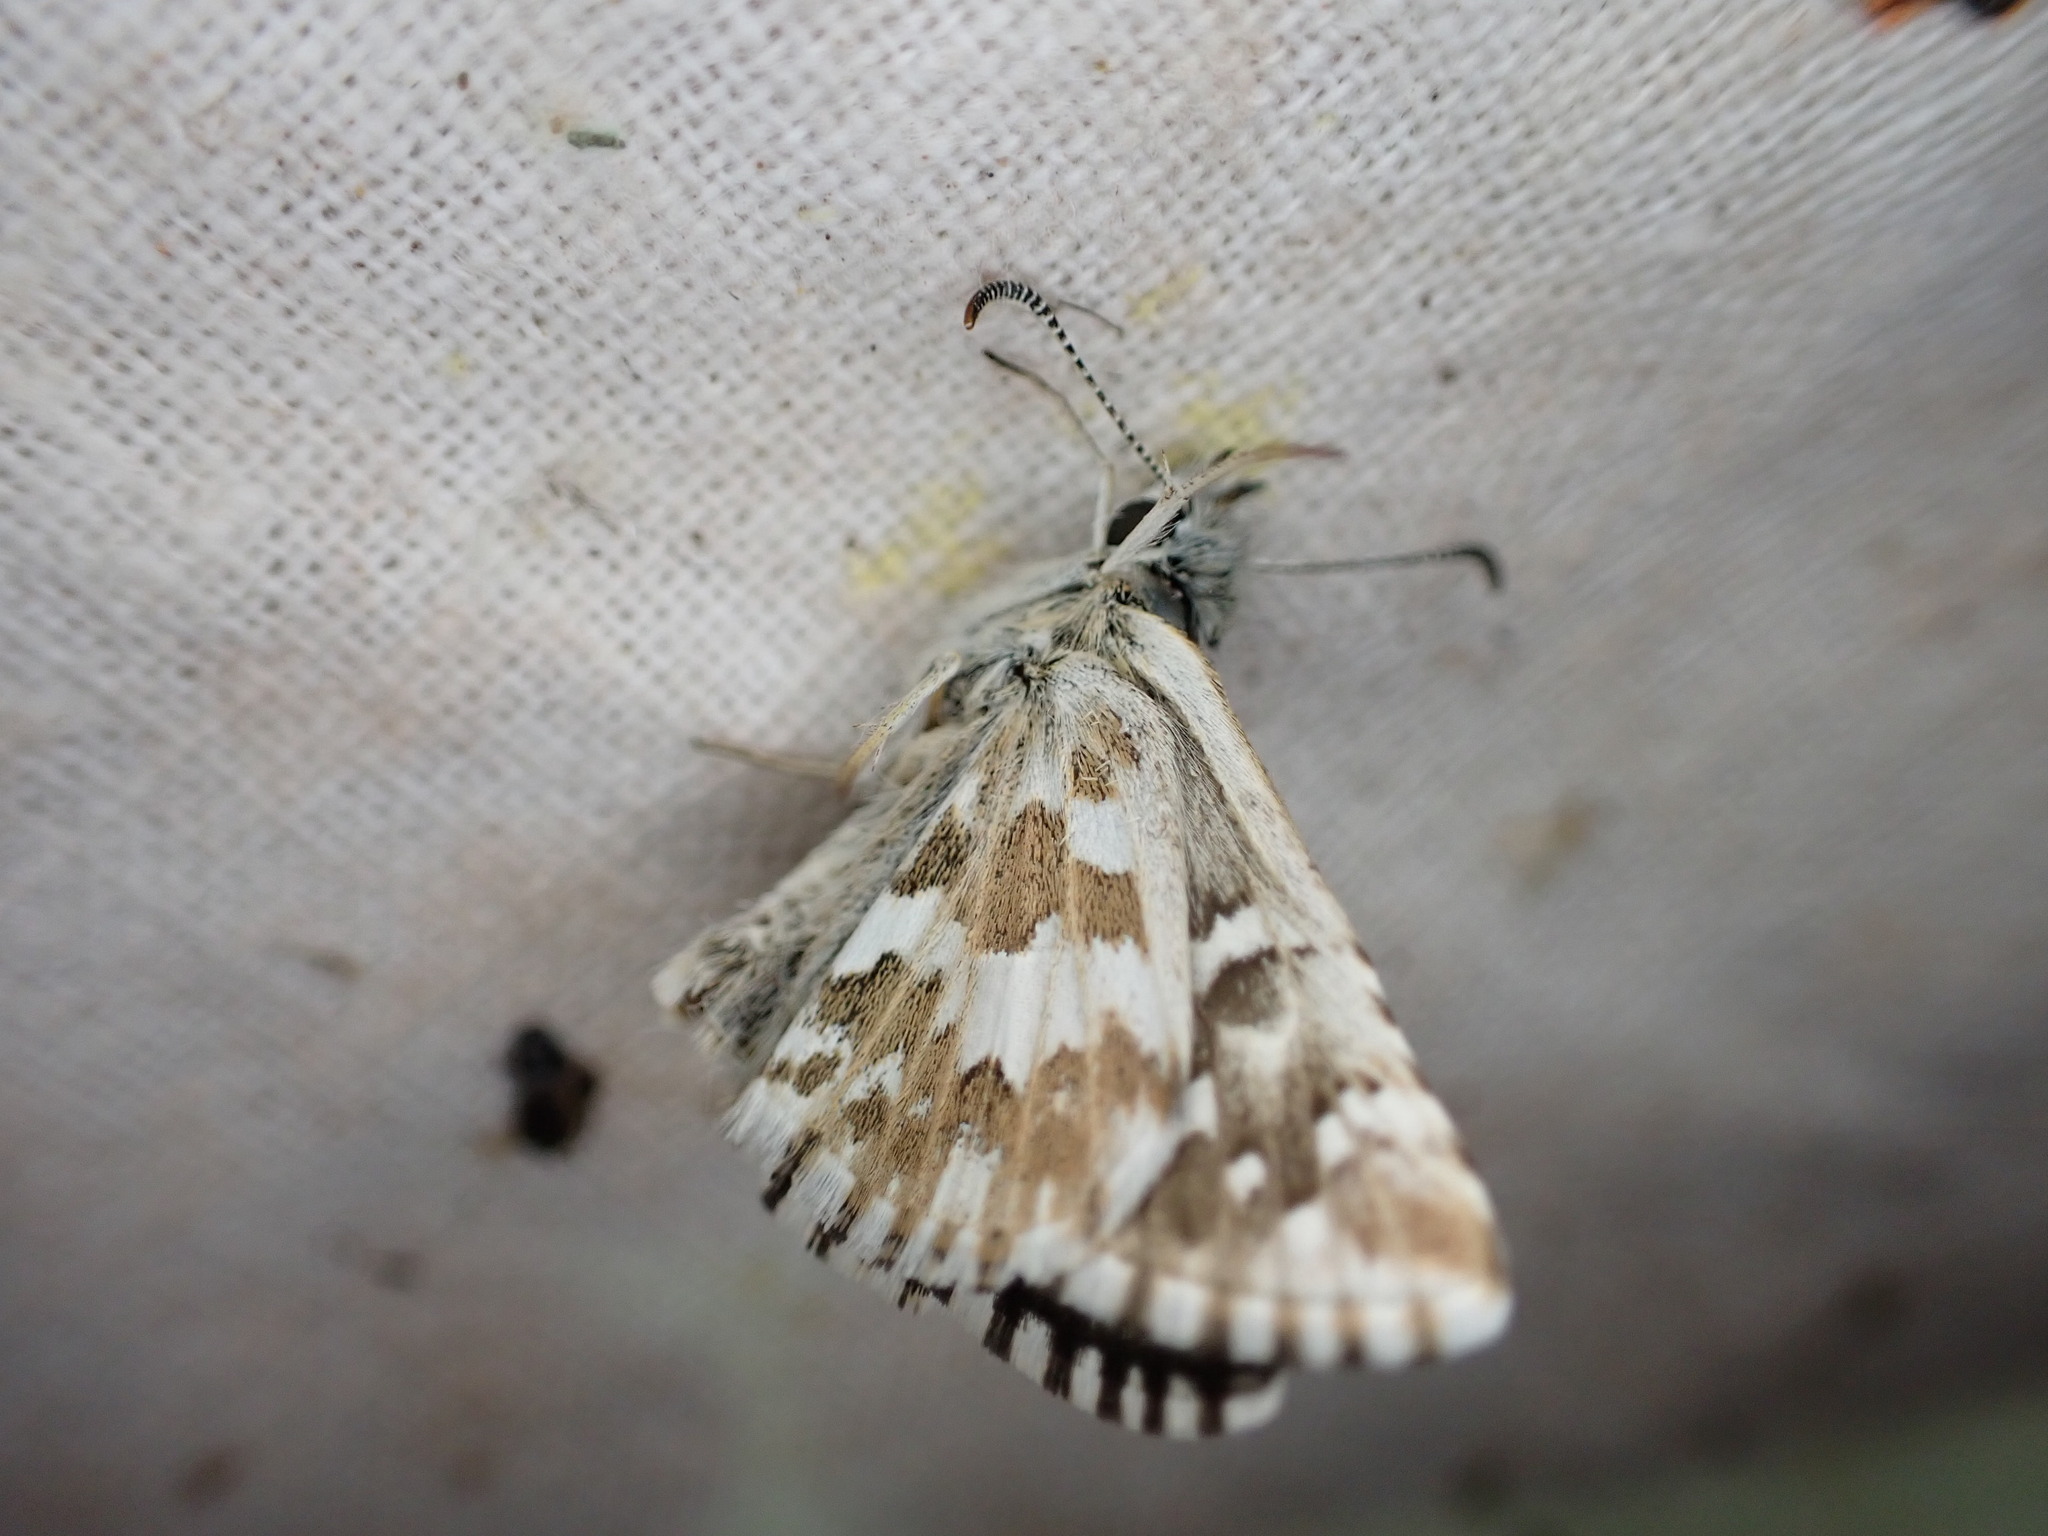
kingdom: Animalia
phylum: Arthropoda
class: Insecta
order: Lepidoptera
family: Hesperiidae
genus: Pyrgus
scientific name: Pyrgus onopordi
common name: Rosy grizzled skipper
